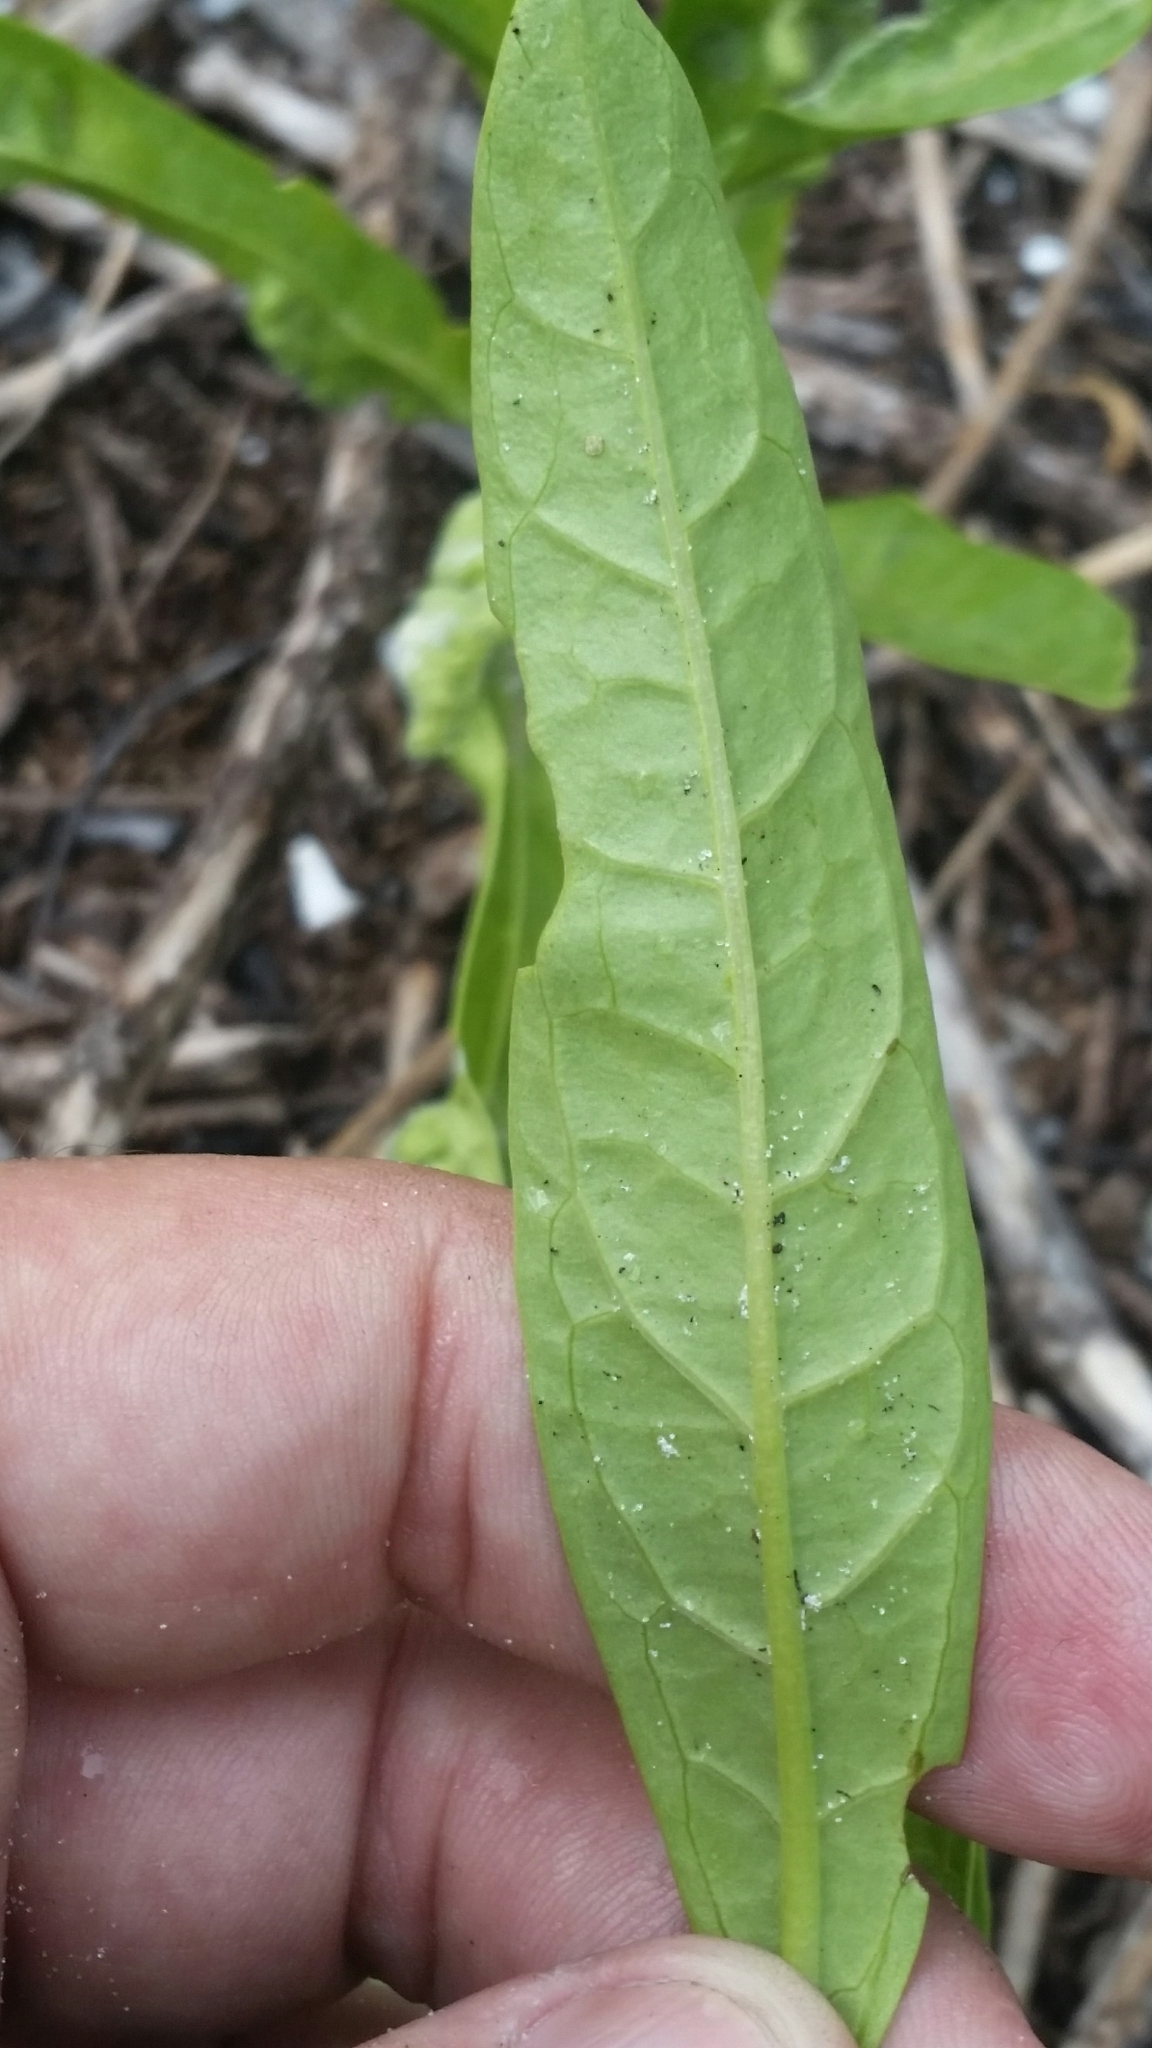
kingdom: Plantae
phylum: Tracheophyta
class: Magnoliopsida
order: Solanales
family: Solanaceae
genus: Physalis
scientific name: Physalis elliottii
